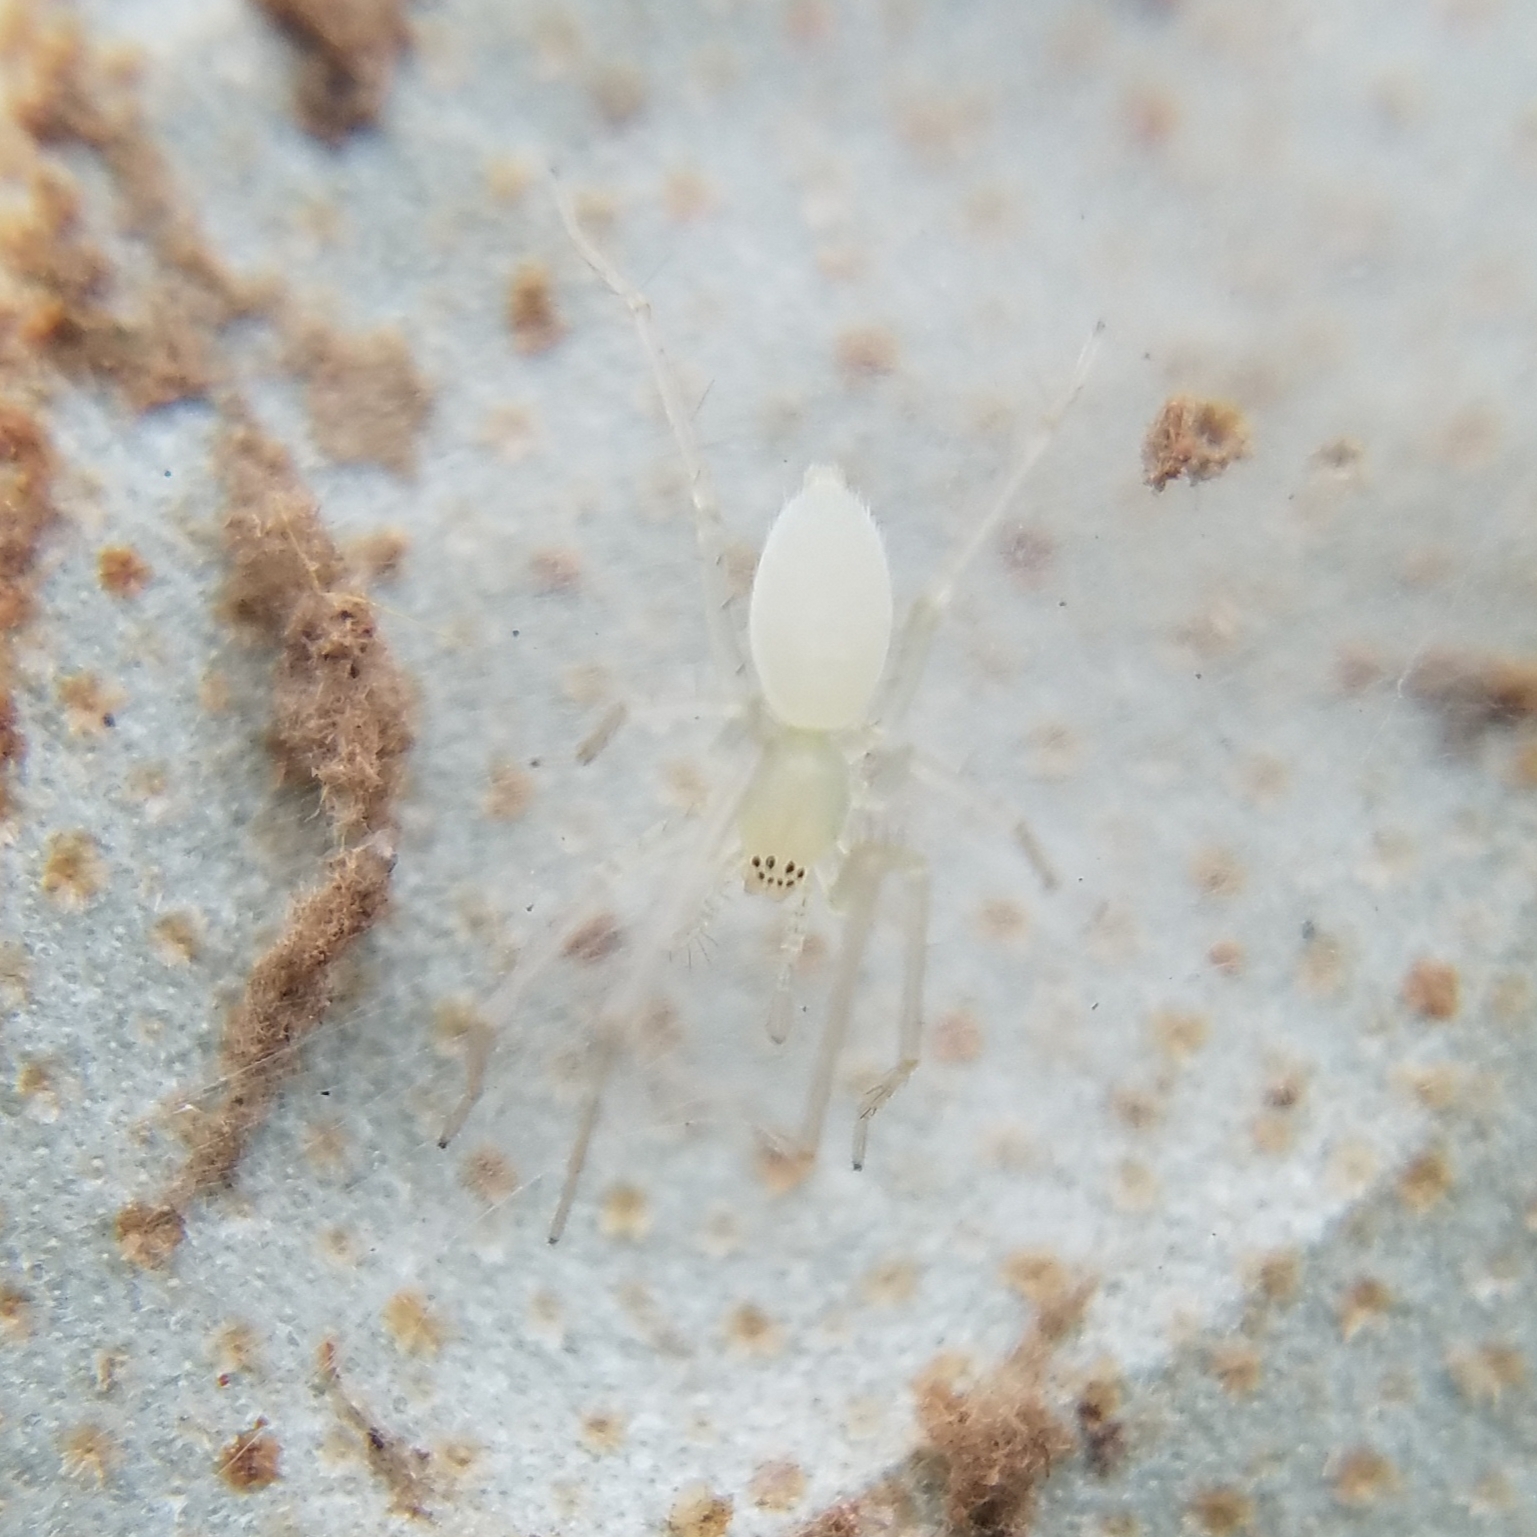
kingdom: Animalia
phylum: Arthropoda
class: Arachnida
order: Araneae
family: Anyphaenidae
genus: Wulfila
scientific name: Wulfila albens
